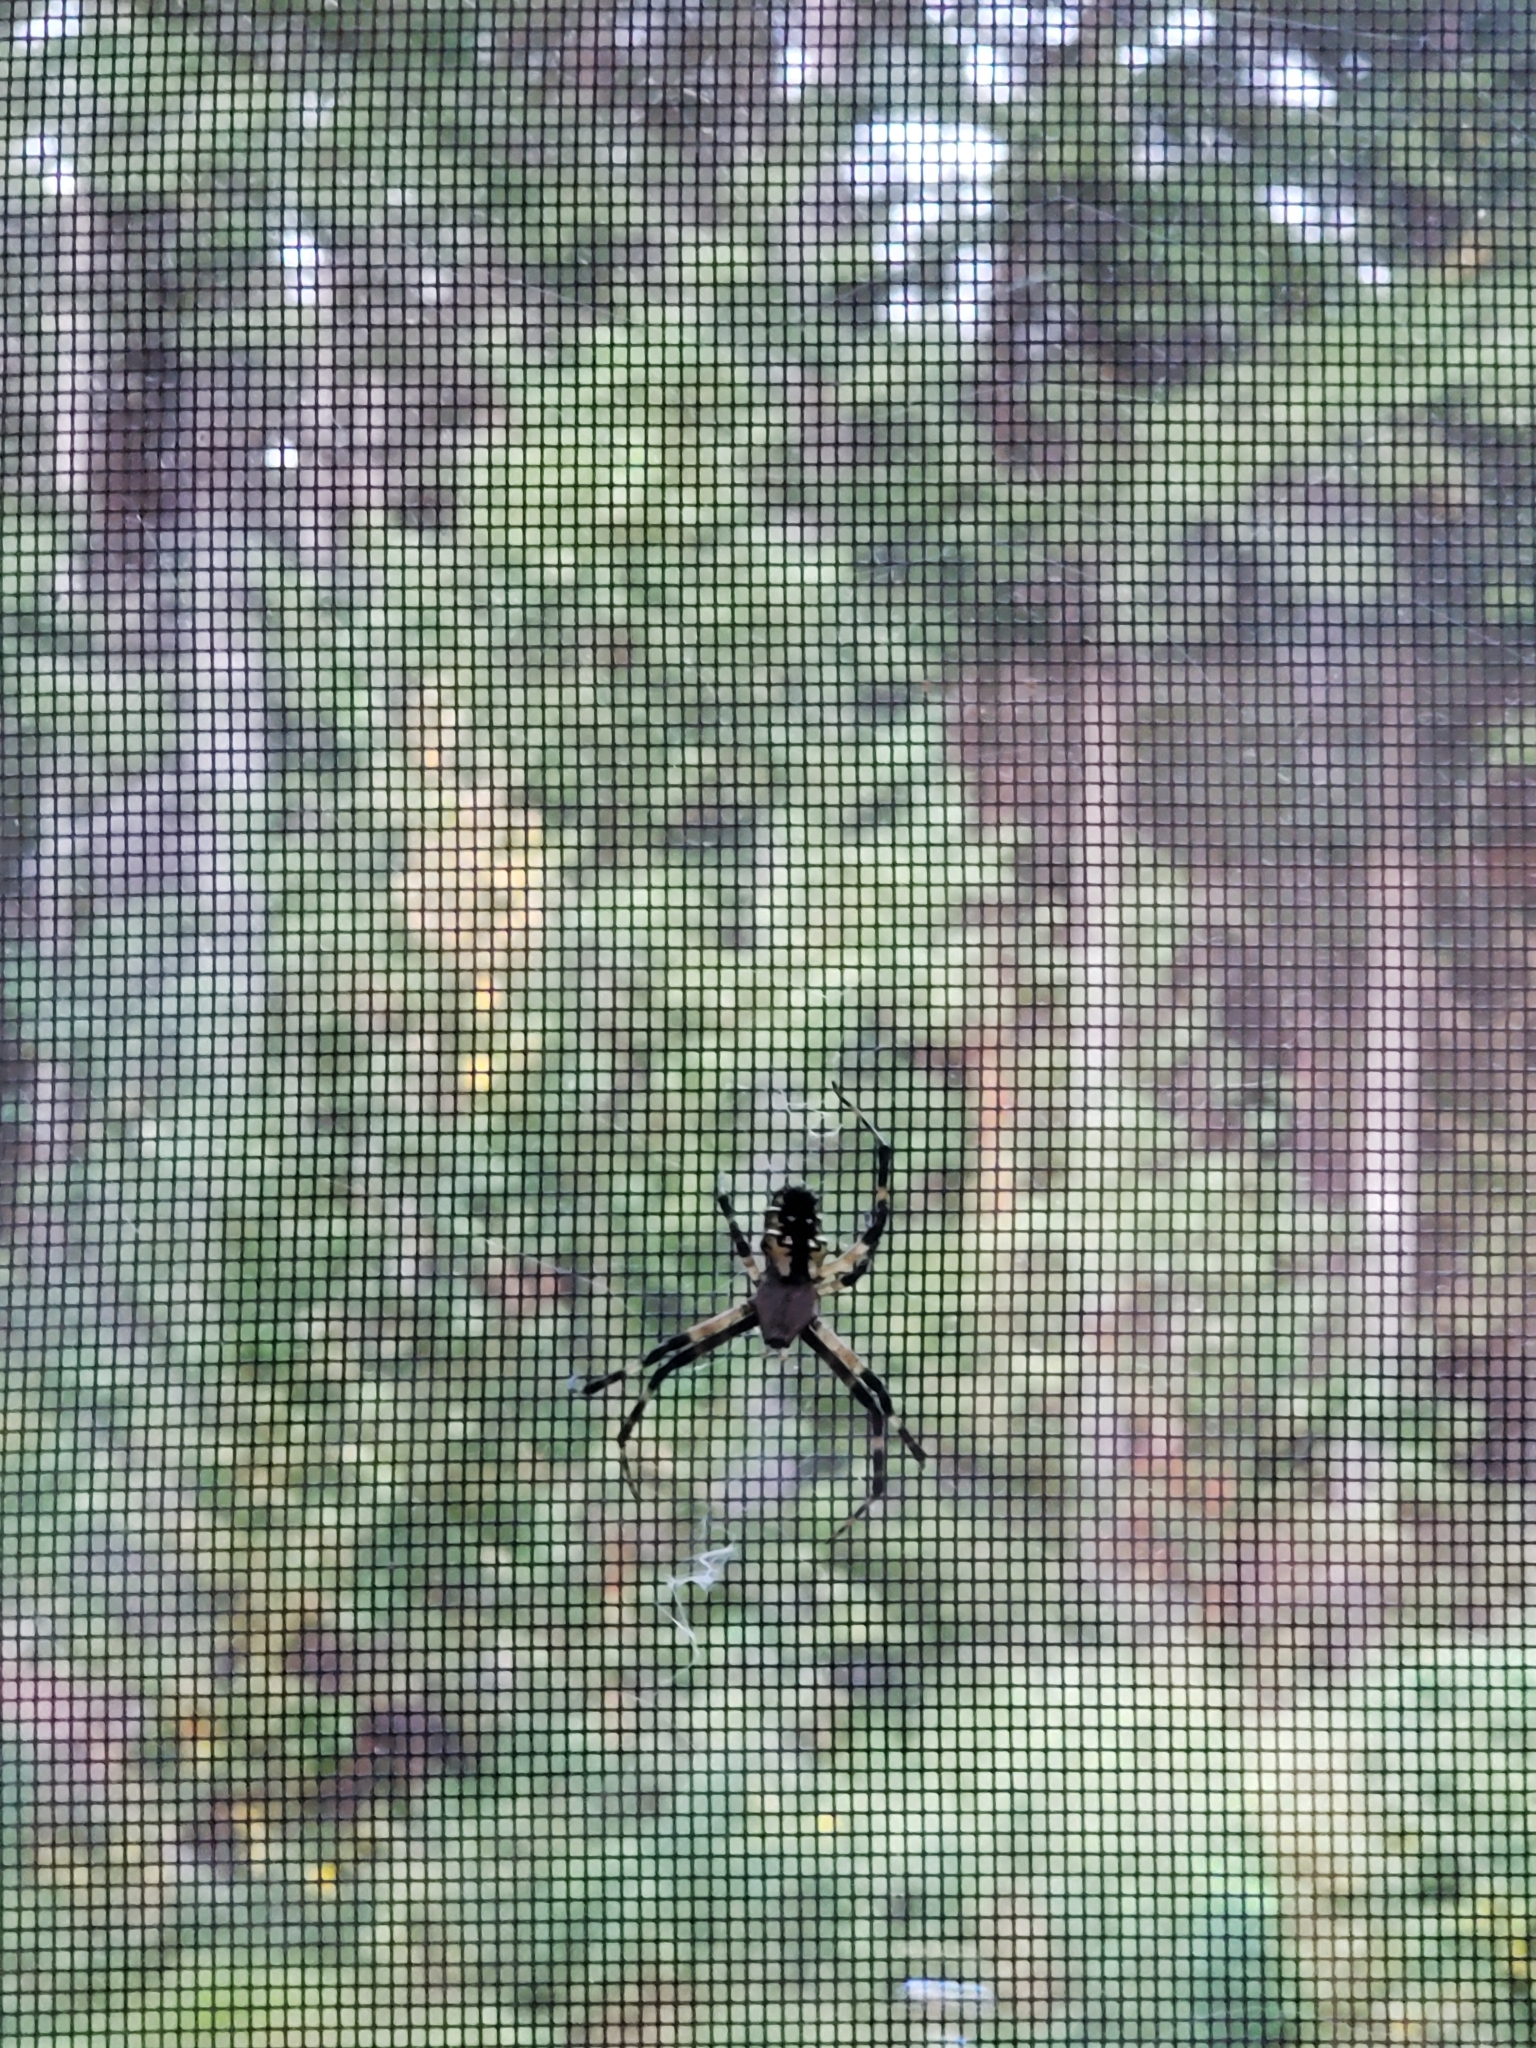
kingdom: Animalia
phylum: Arthropoda
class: Arachnida
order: Araneae
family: Araneidae
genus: Argiope
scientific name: Argiope aurantia
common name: Orb weavers
